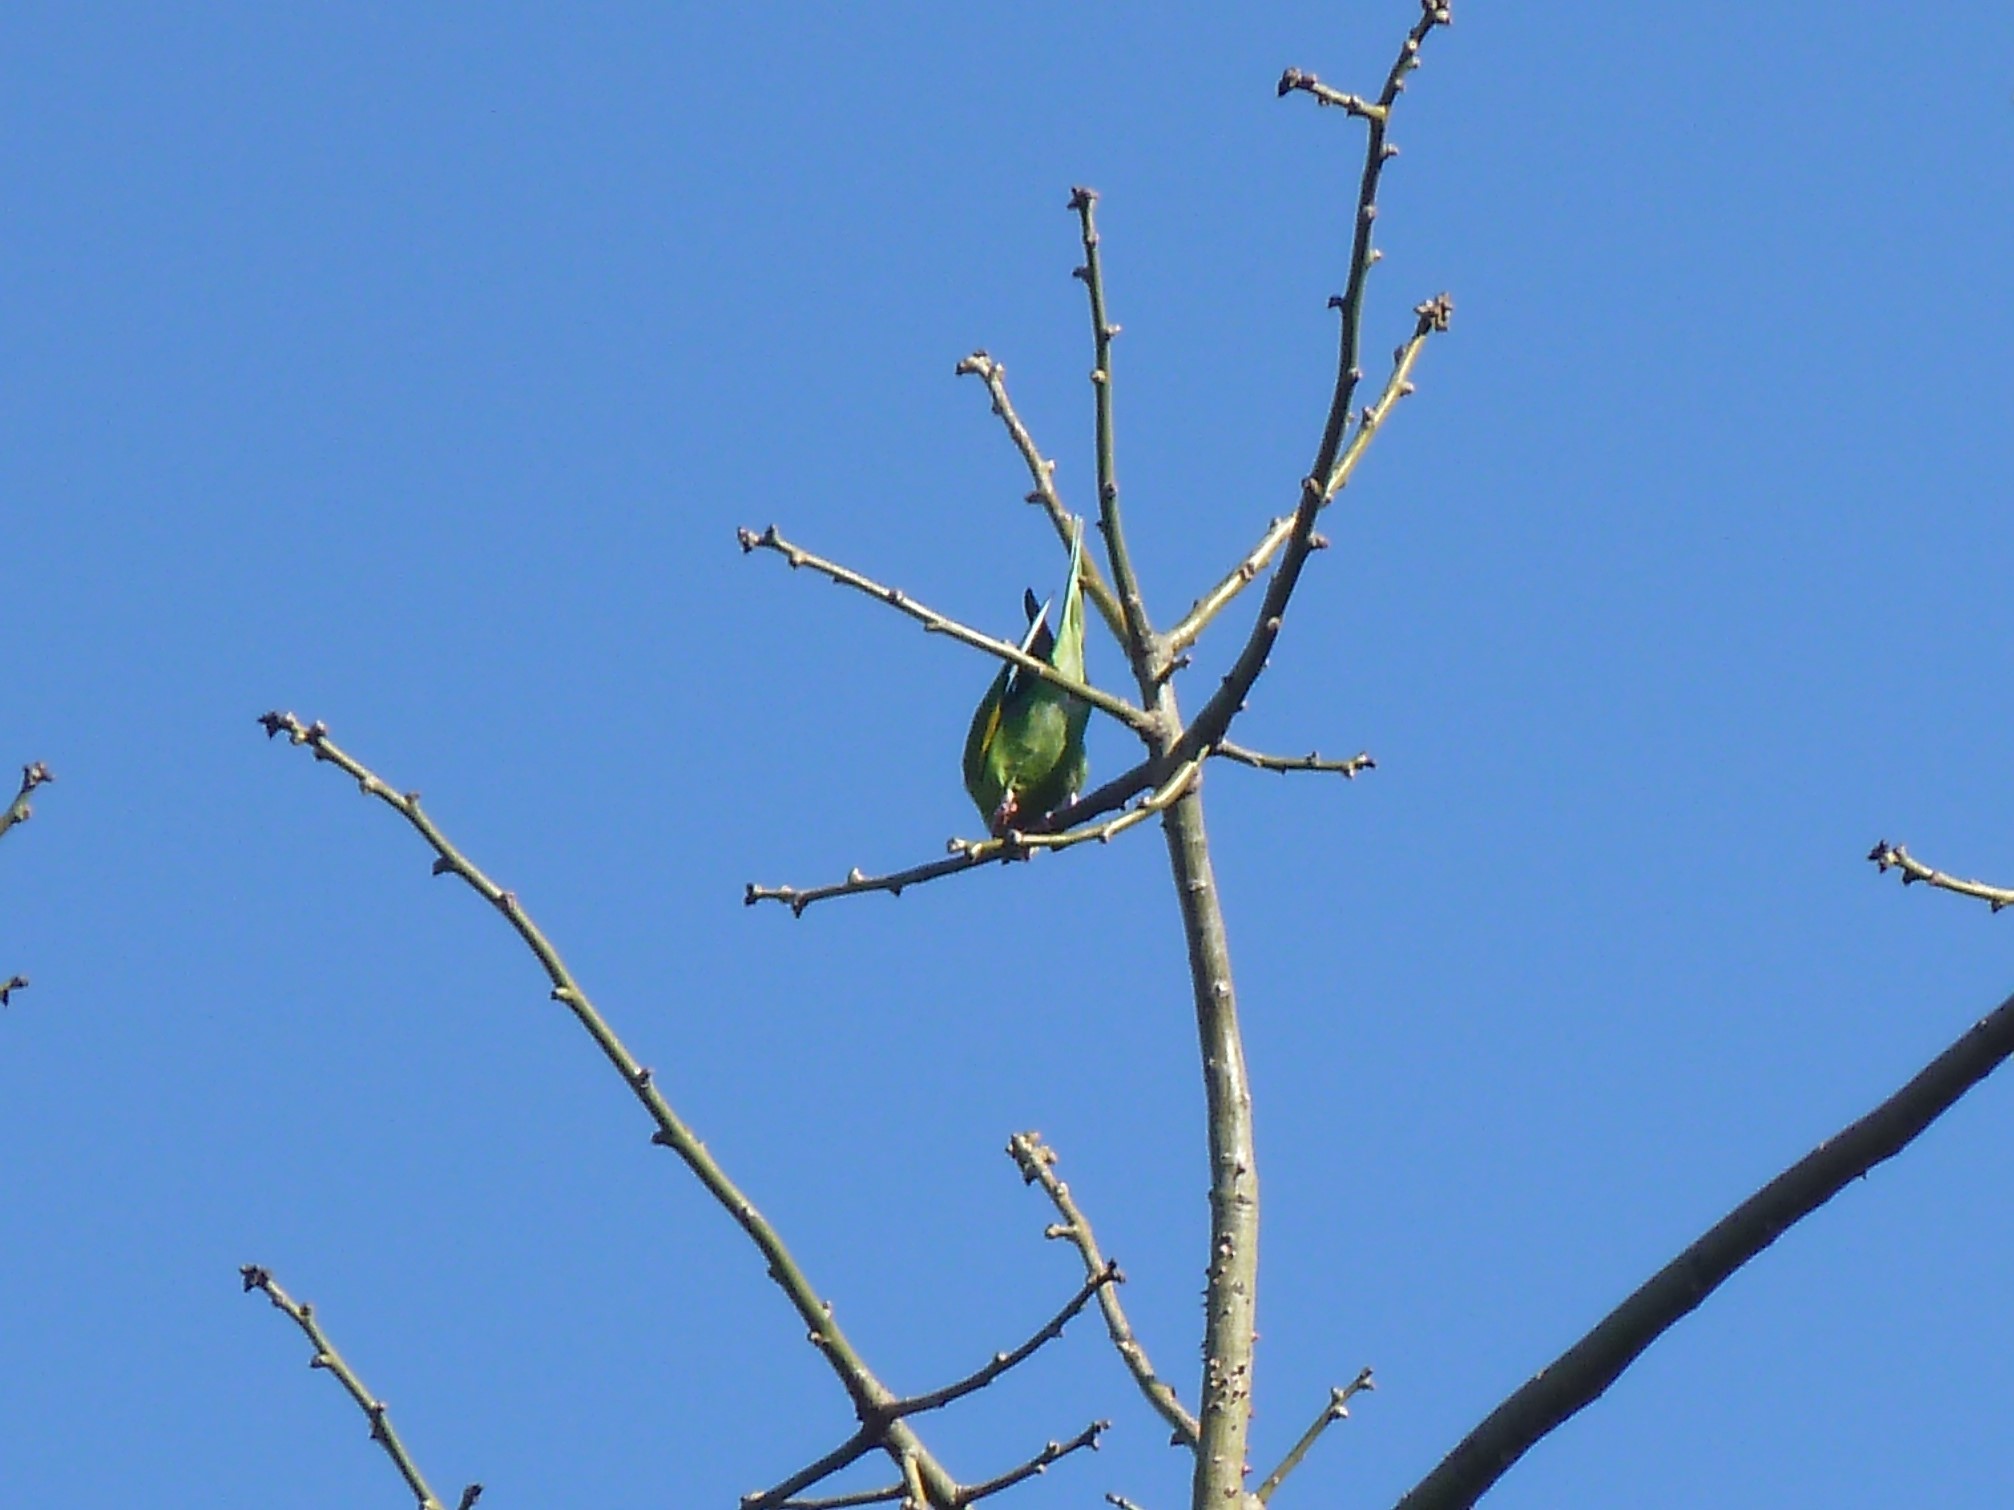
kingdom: Animalia
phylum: Chordata
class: Aves
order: Psittaciformes
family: Psittacidae
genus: Brotogeris
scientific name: Brotogeris chiriri
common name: Yellow-chevroned parakeet
